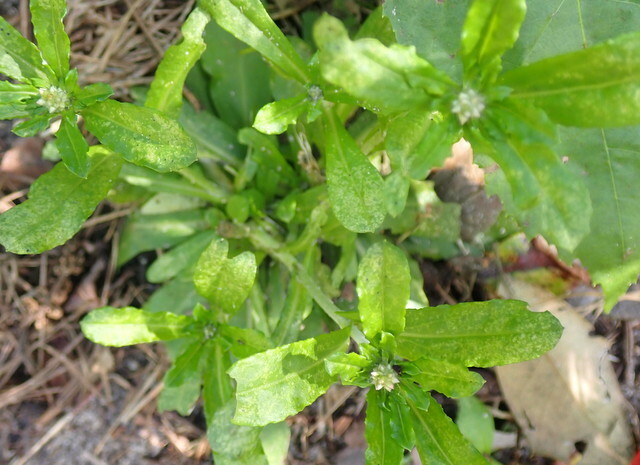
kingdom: Plantae
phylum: Tracheophyta
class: Magnoliopsida
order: Asterales
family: Asteraceae
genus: Gamochaeta
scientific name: Gamochaeta pensylvanica
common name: Pennsylvania everlasting
